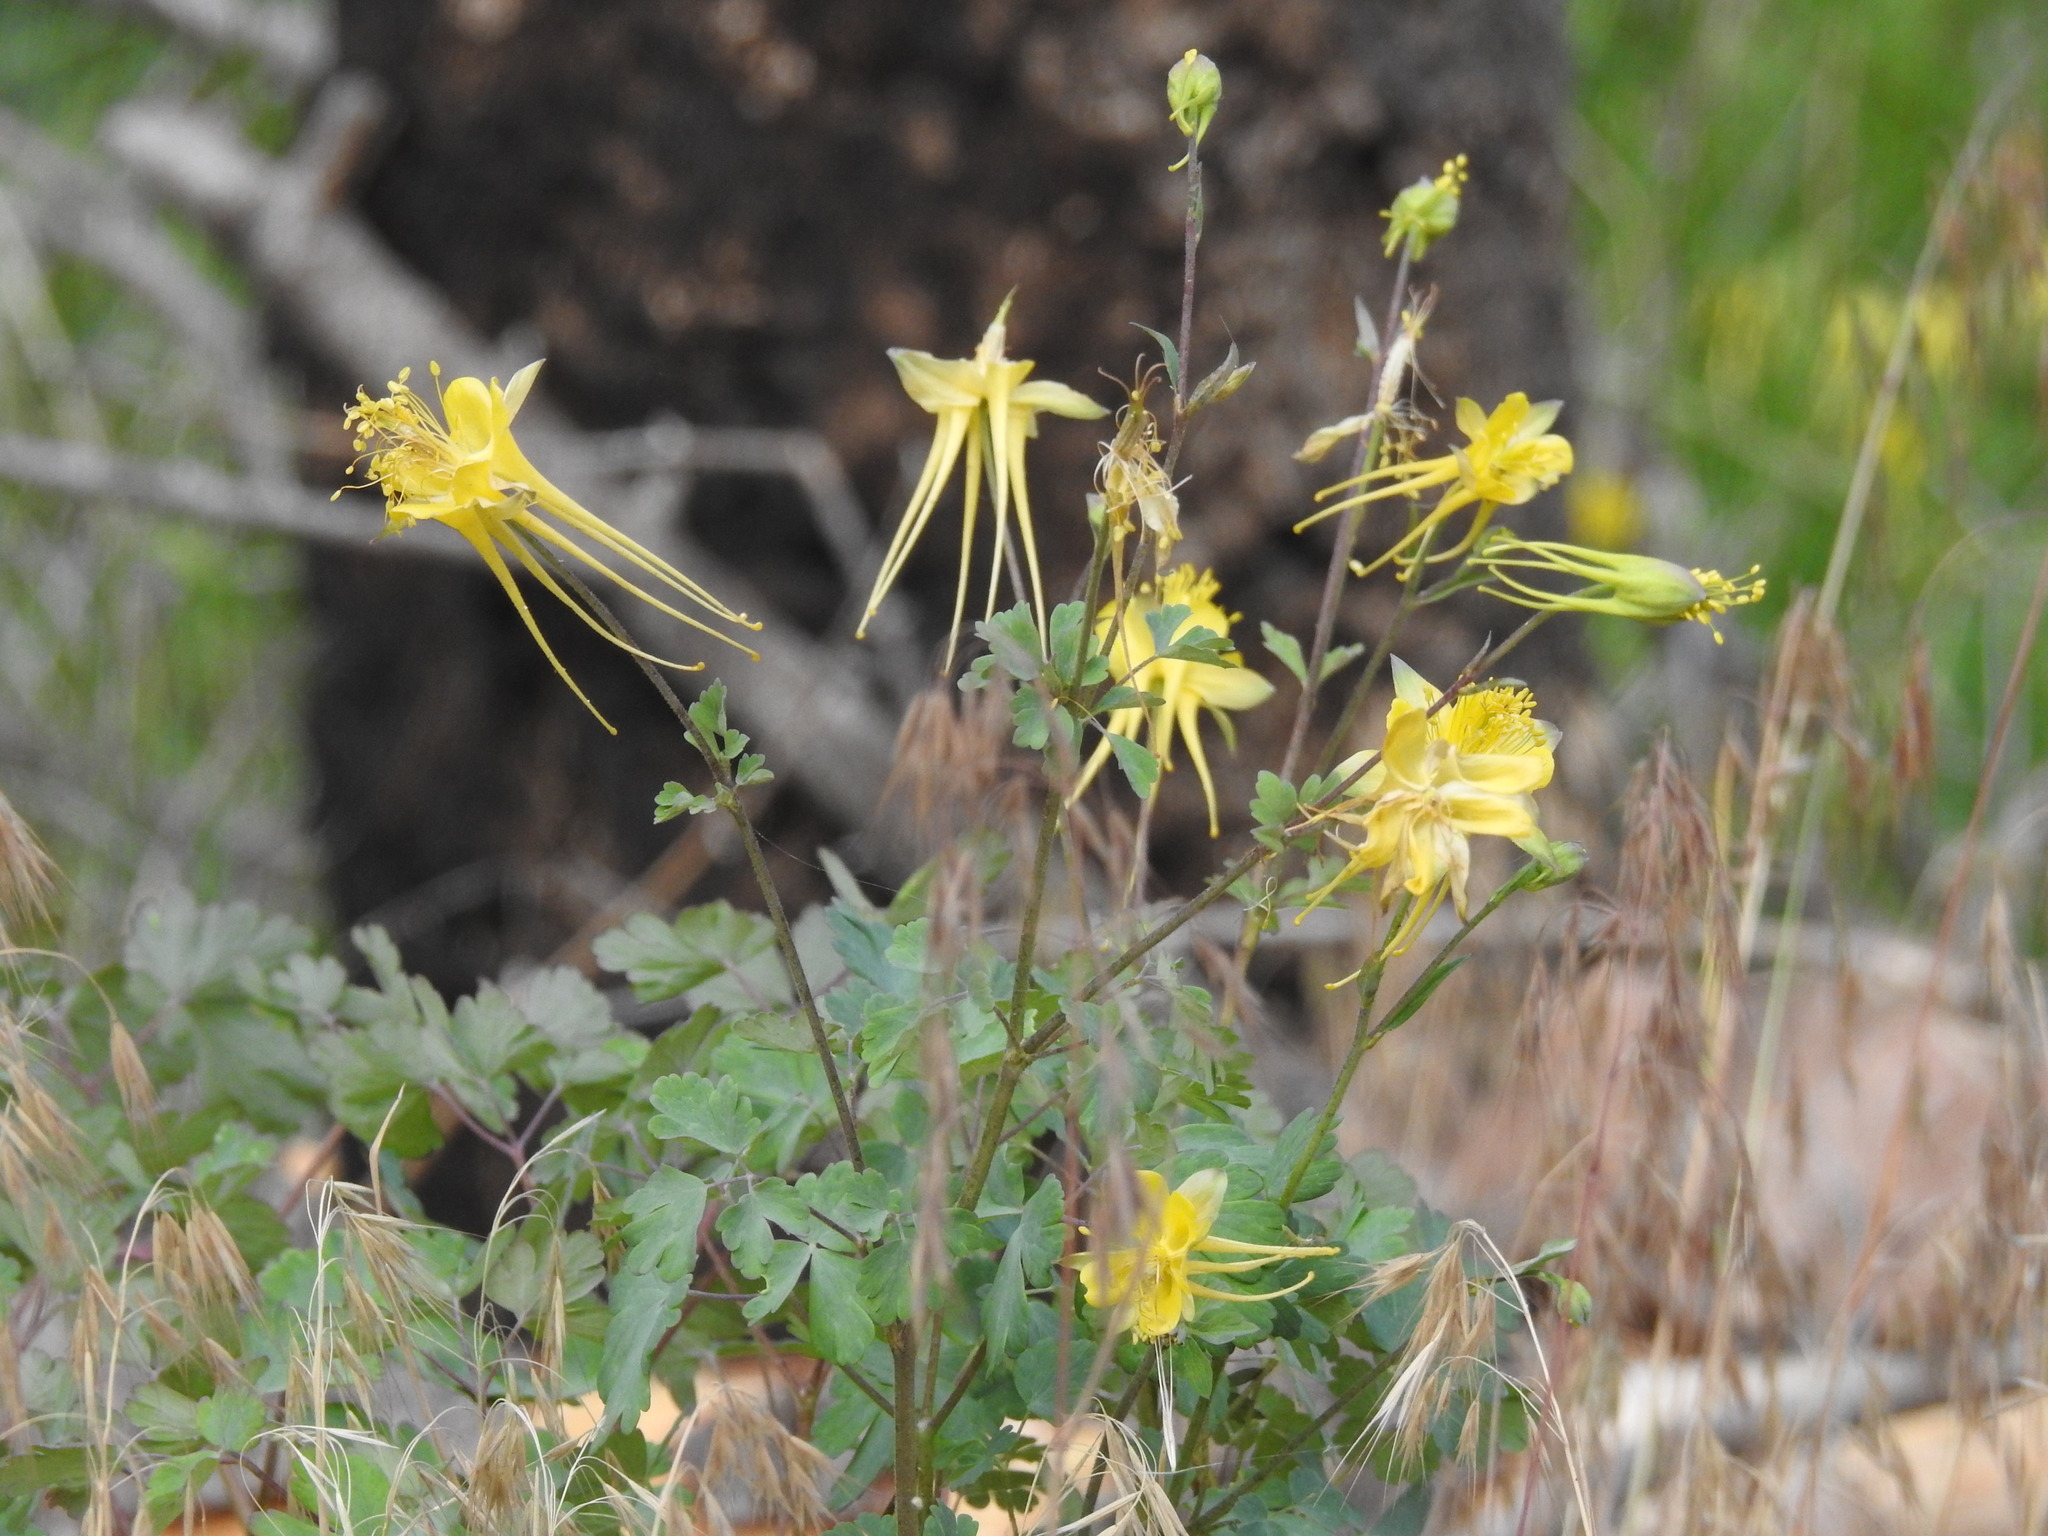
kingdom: Plantae
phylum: Tracheophyta
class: Magnoliopsida
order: Ranunculales
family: Ranunculaceae
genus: Aquilegia
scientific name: Aquilegia chrysantha
